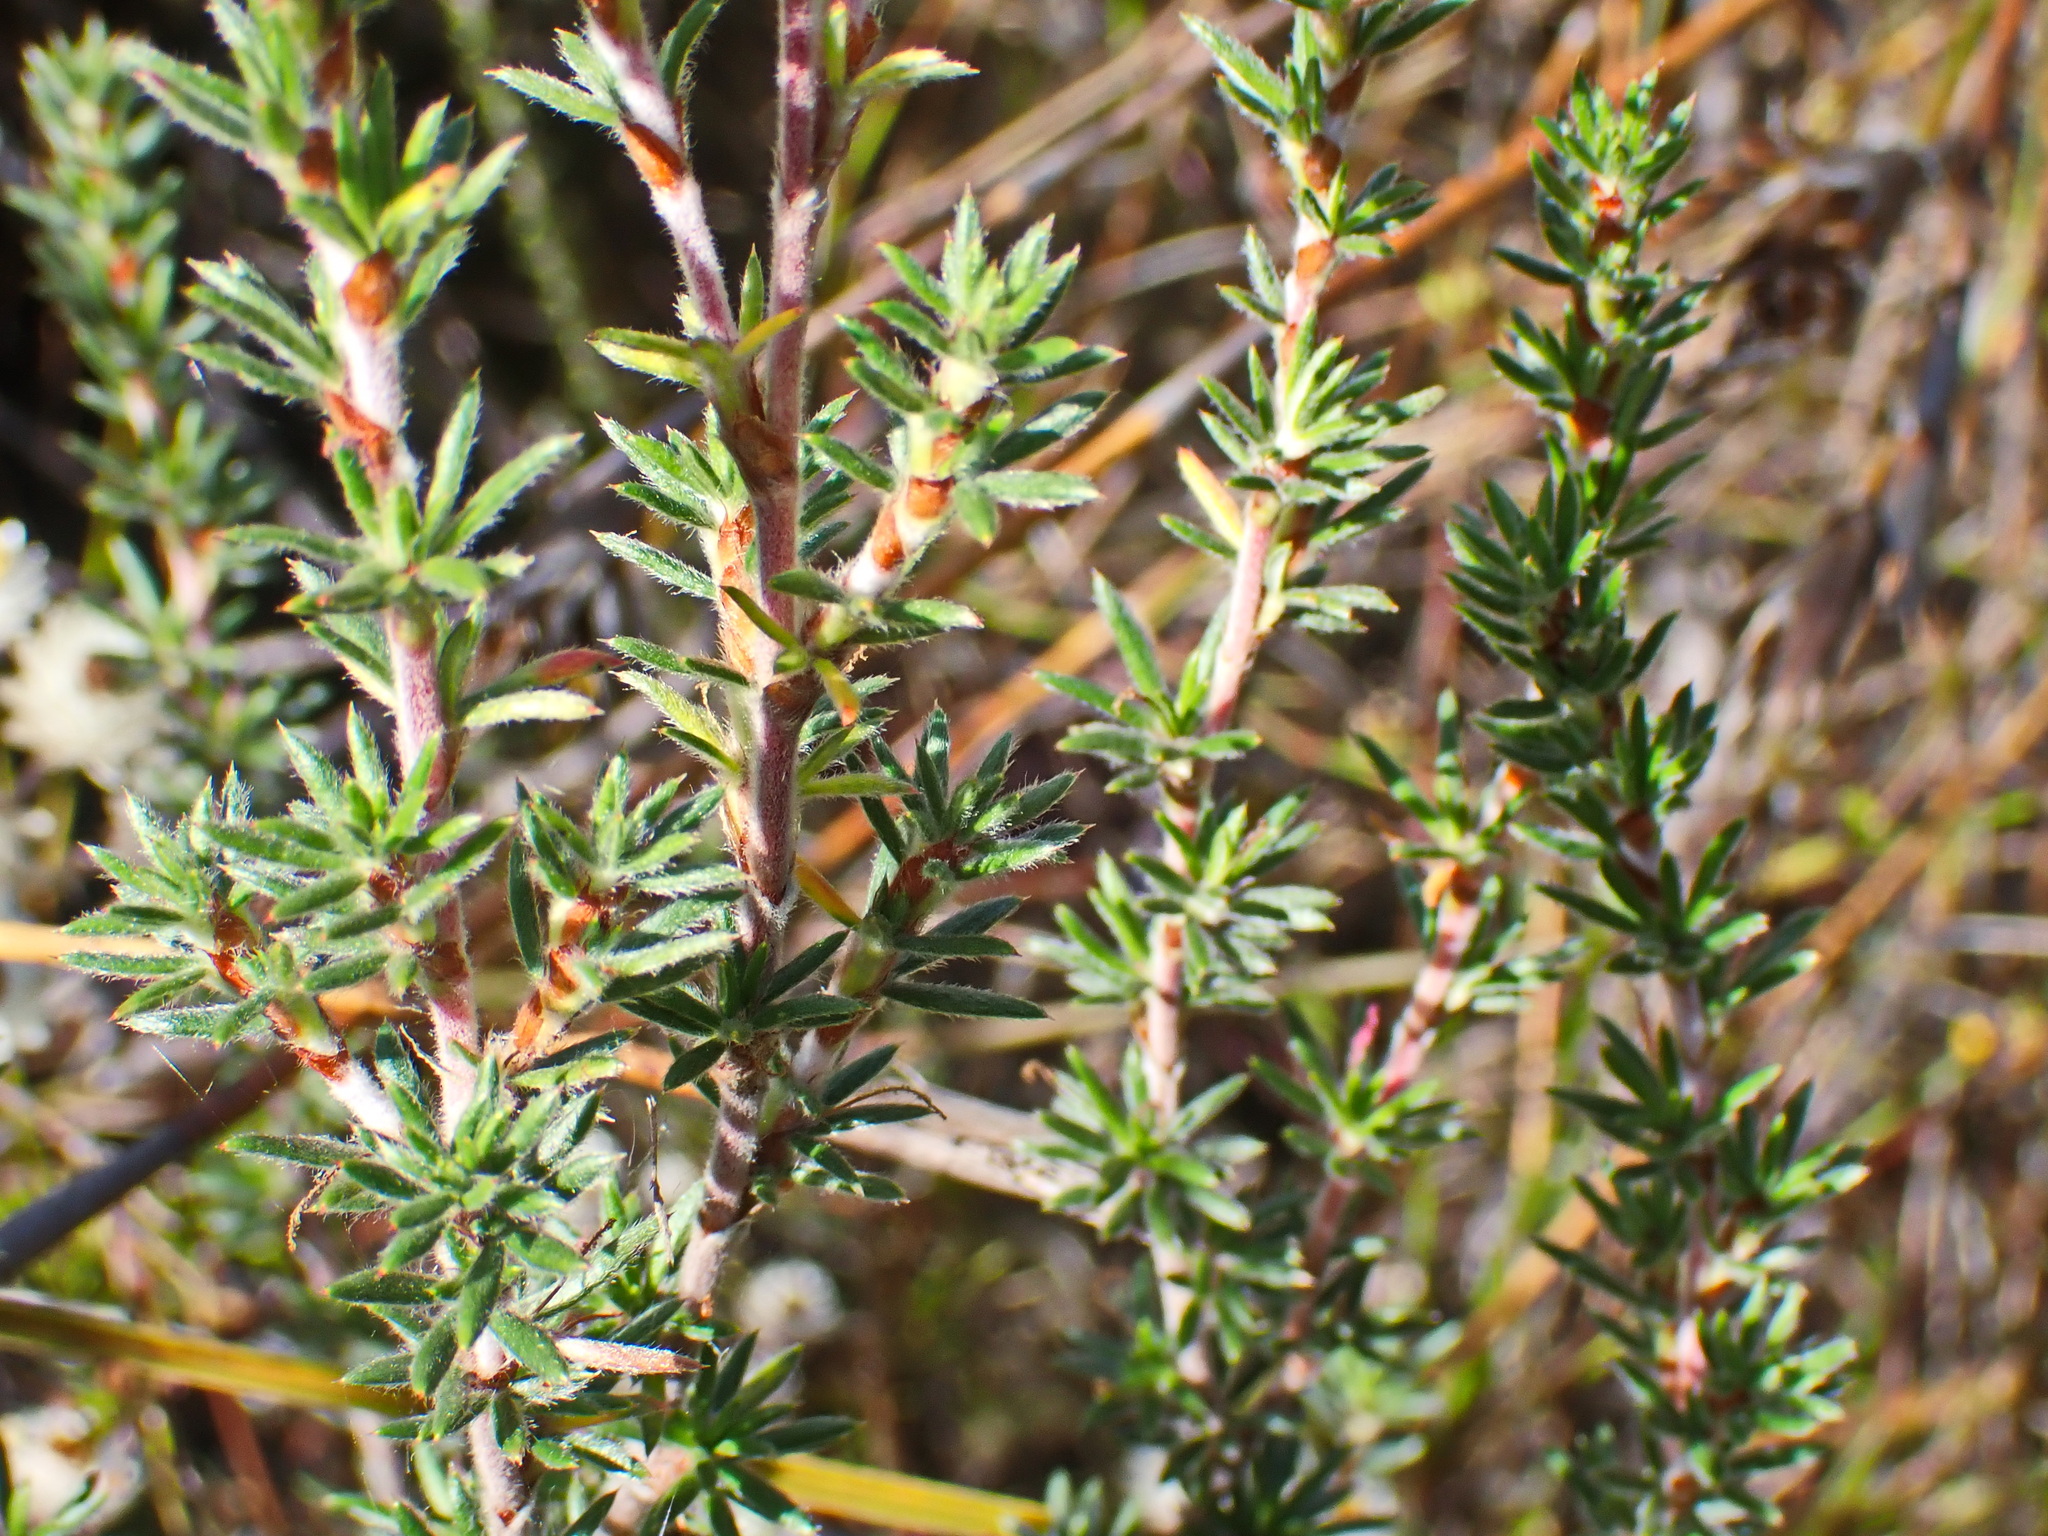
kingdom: Plantae
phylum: Tracheophyta
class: Magnoliopsida
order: Rosales
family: Rosaceae
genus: Cliffortia
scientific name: Cliffortia stricta
